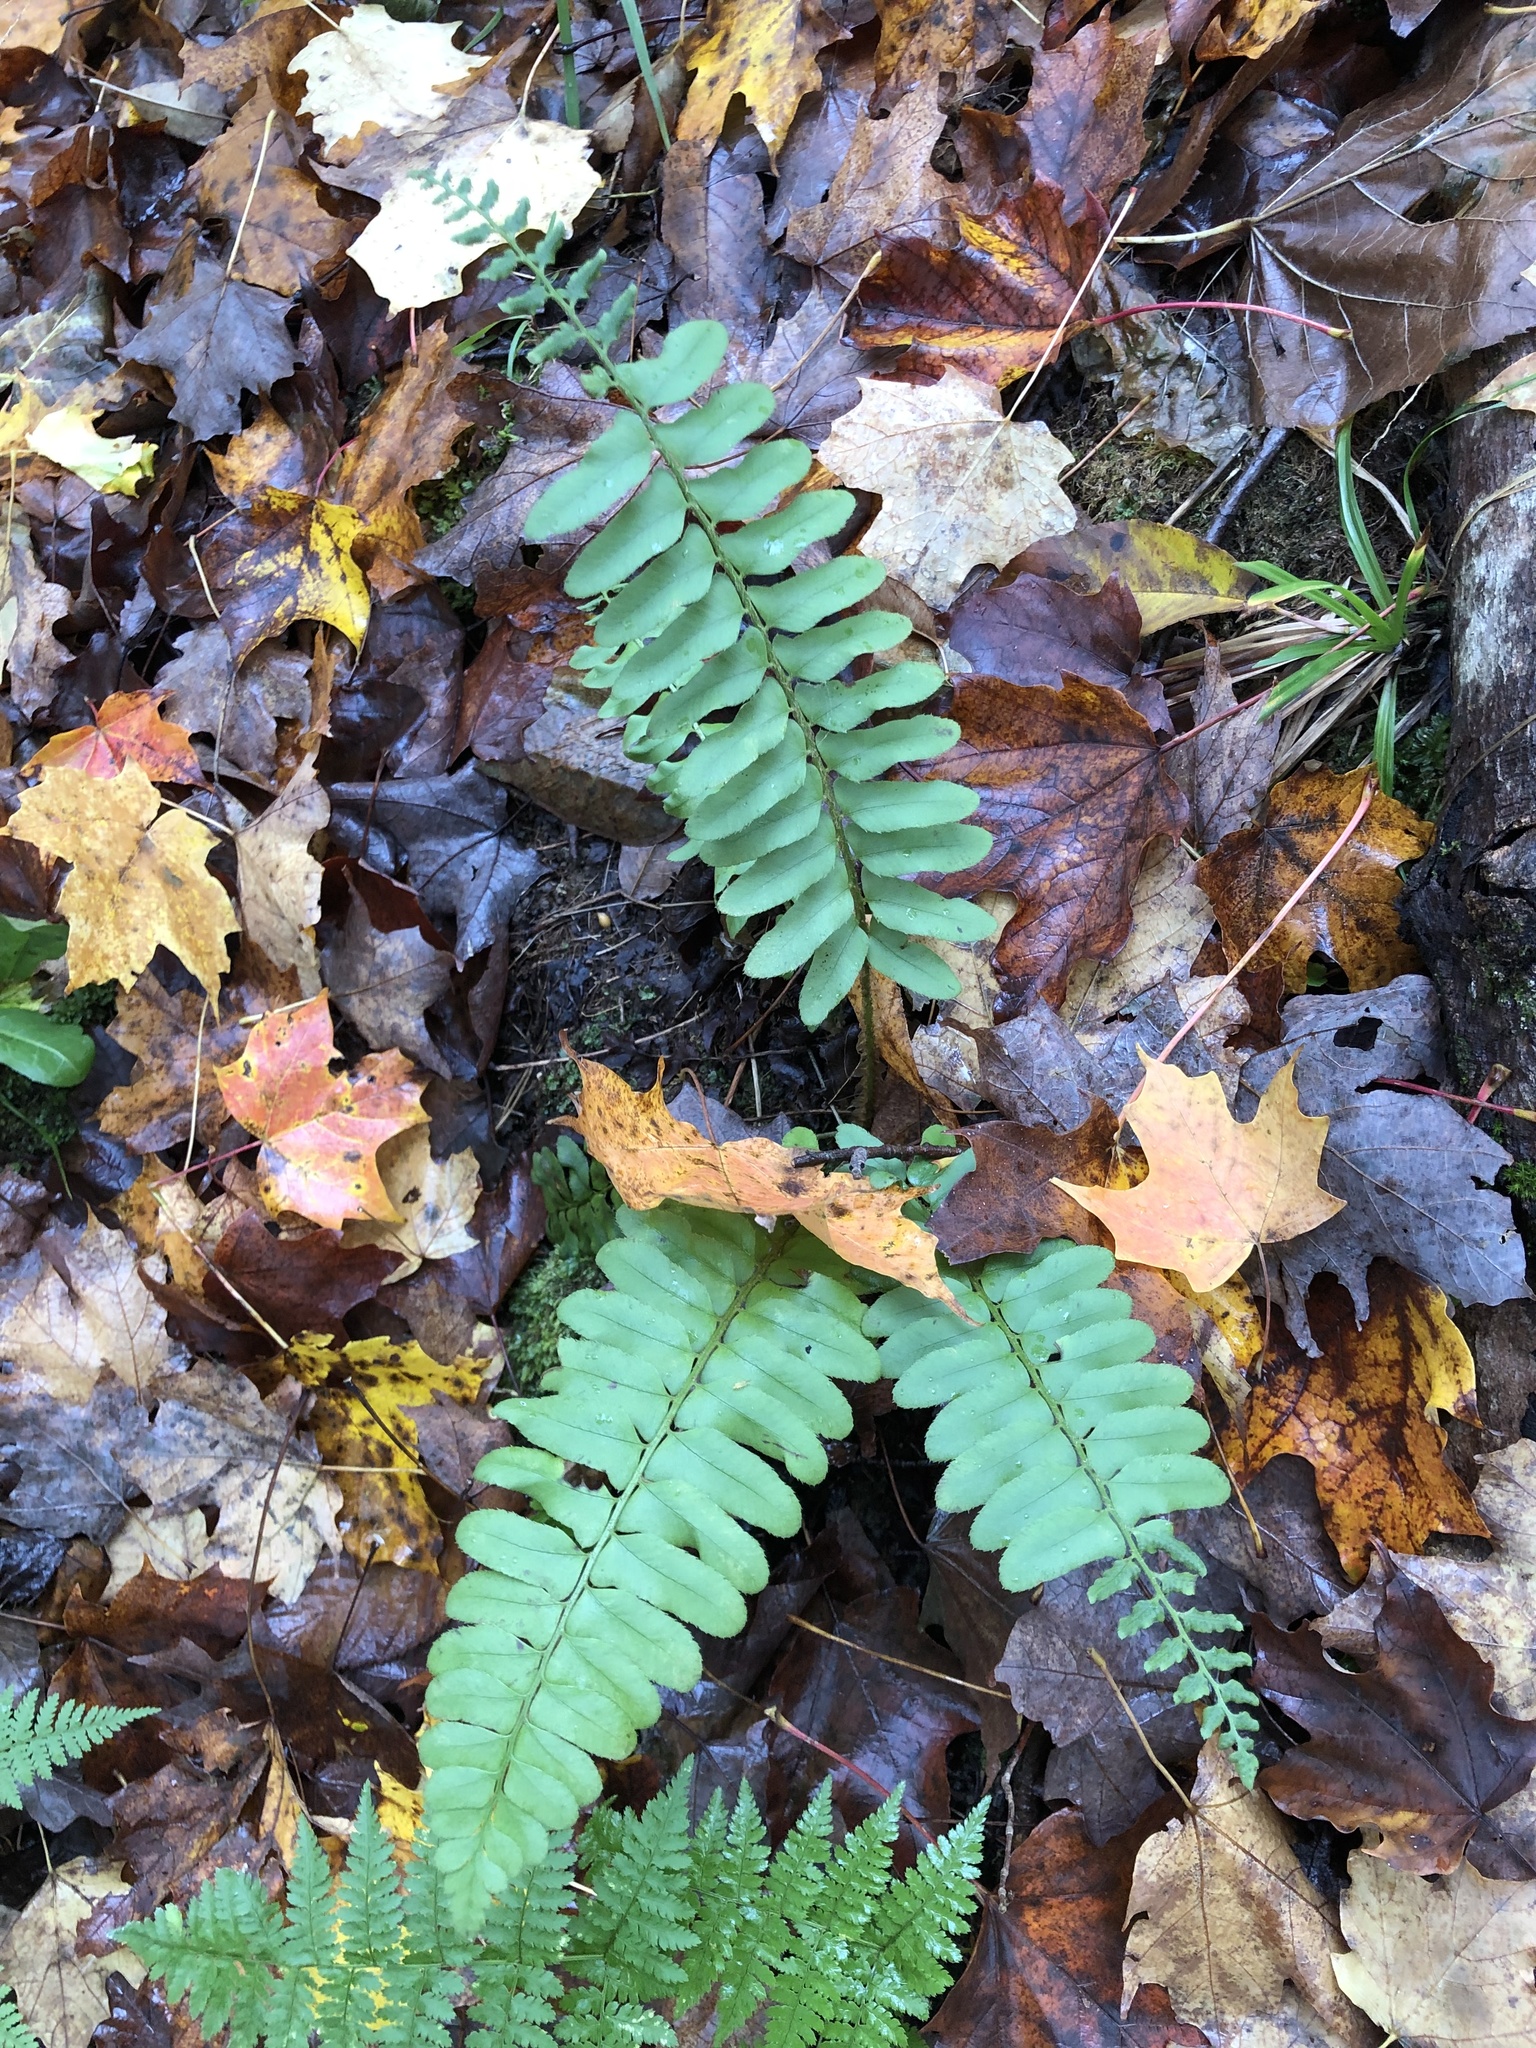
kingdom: Plantae
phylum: Tracheophyta
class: Polypodiopsida
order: Polypodiales
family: Dryopteridaceae
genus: Polystichum
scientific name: Polystichum acrostichoides
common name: Christmas fern
